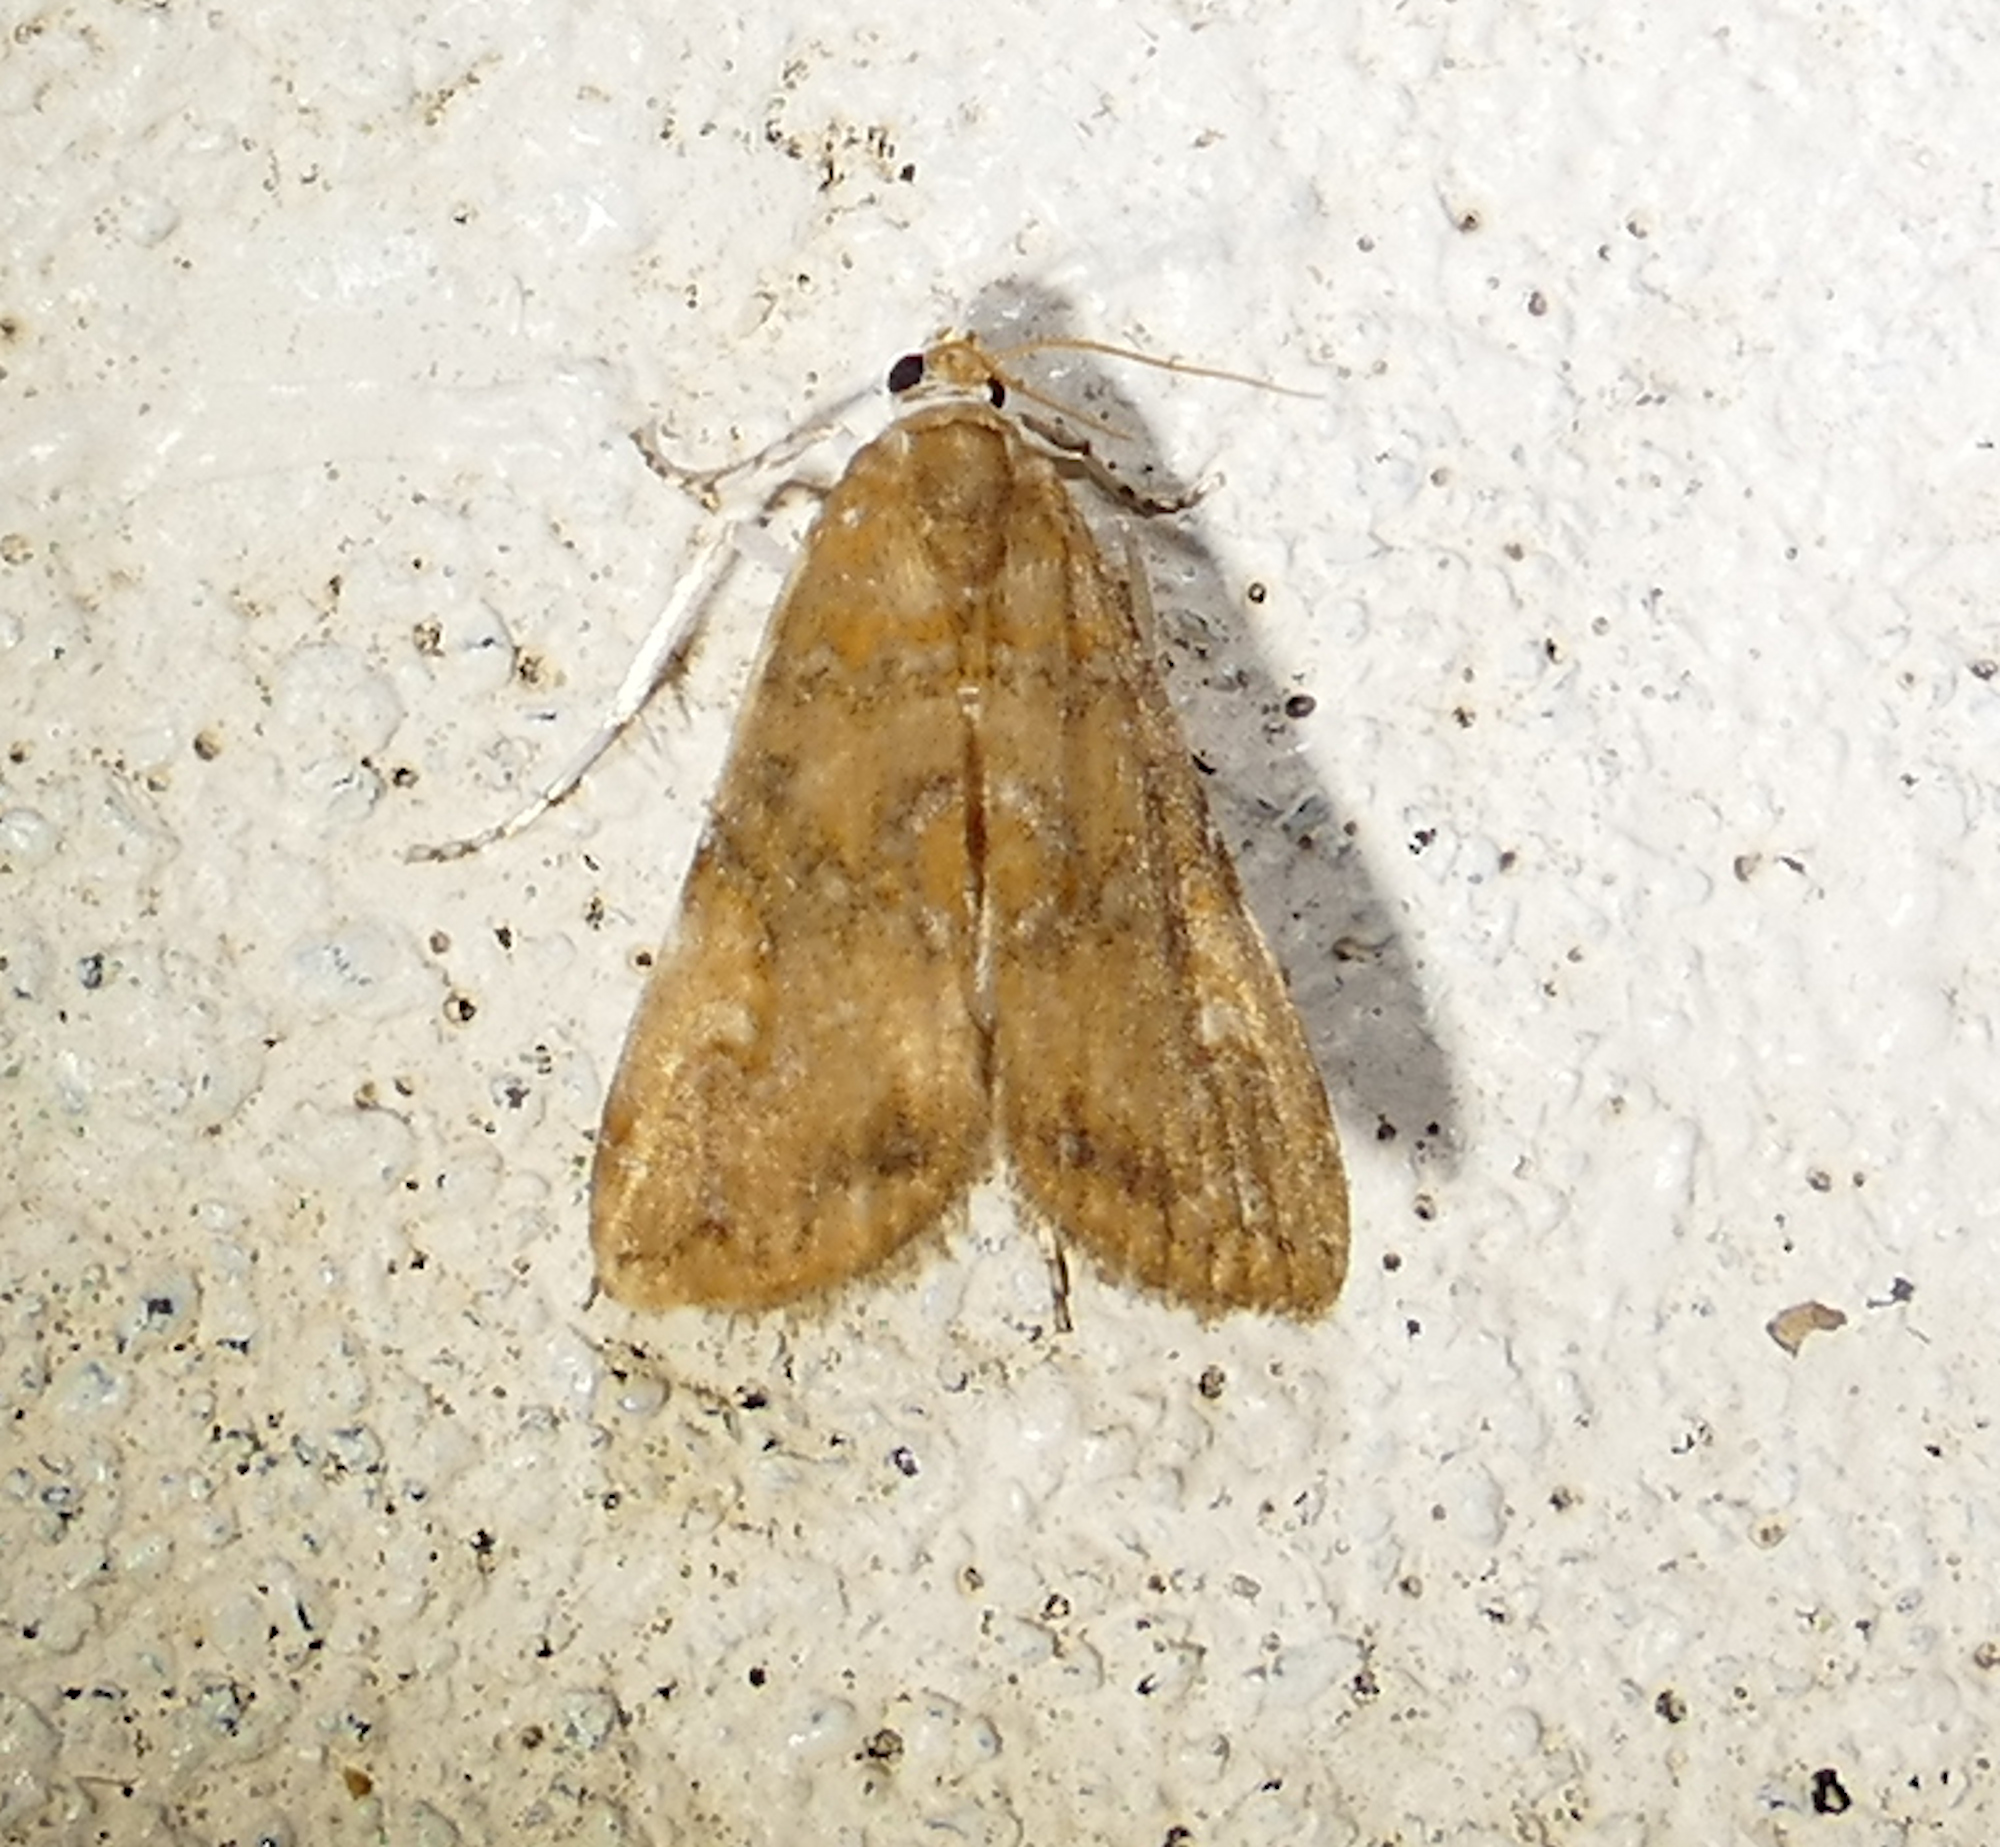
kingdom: Animalia
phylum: Arthropoda
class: Insecta
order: Lepidoptera
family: Crambidae
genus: Elophila
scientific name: Elophila gyralis
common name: Waterlily borer moth
